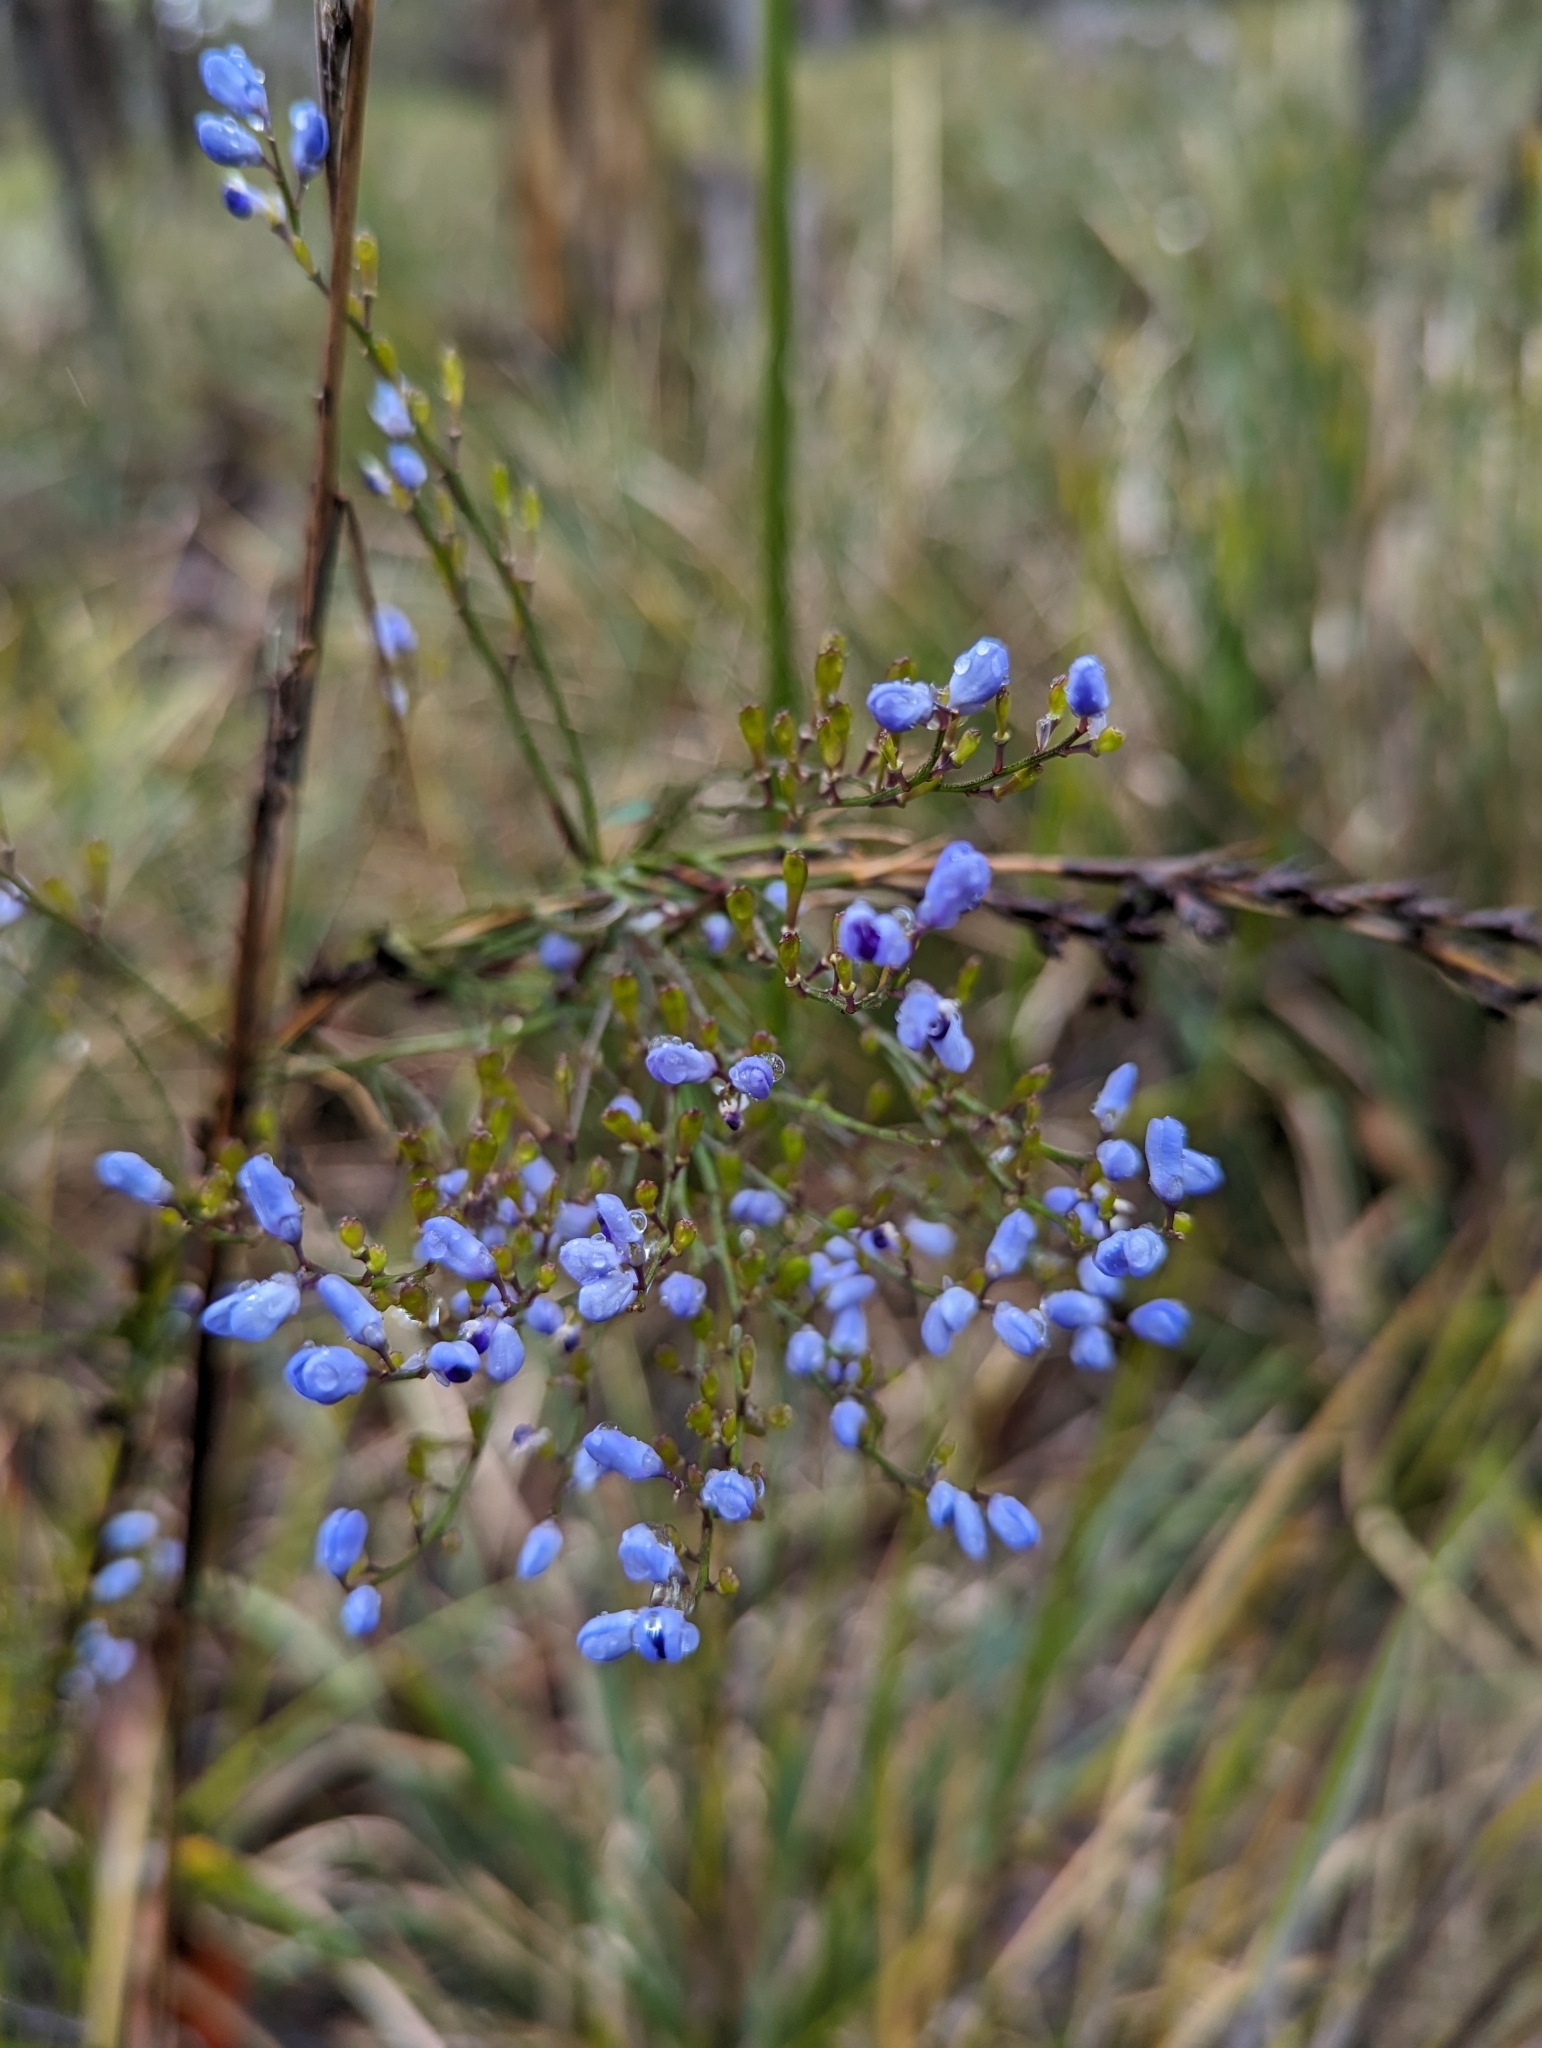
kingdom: Plantae
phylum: Tracheophyta
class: Magnoliopsida
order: Fabales
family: Polygalaceae
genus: Comesperma
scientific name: Comesperma volubile
